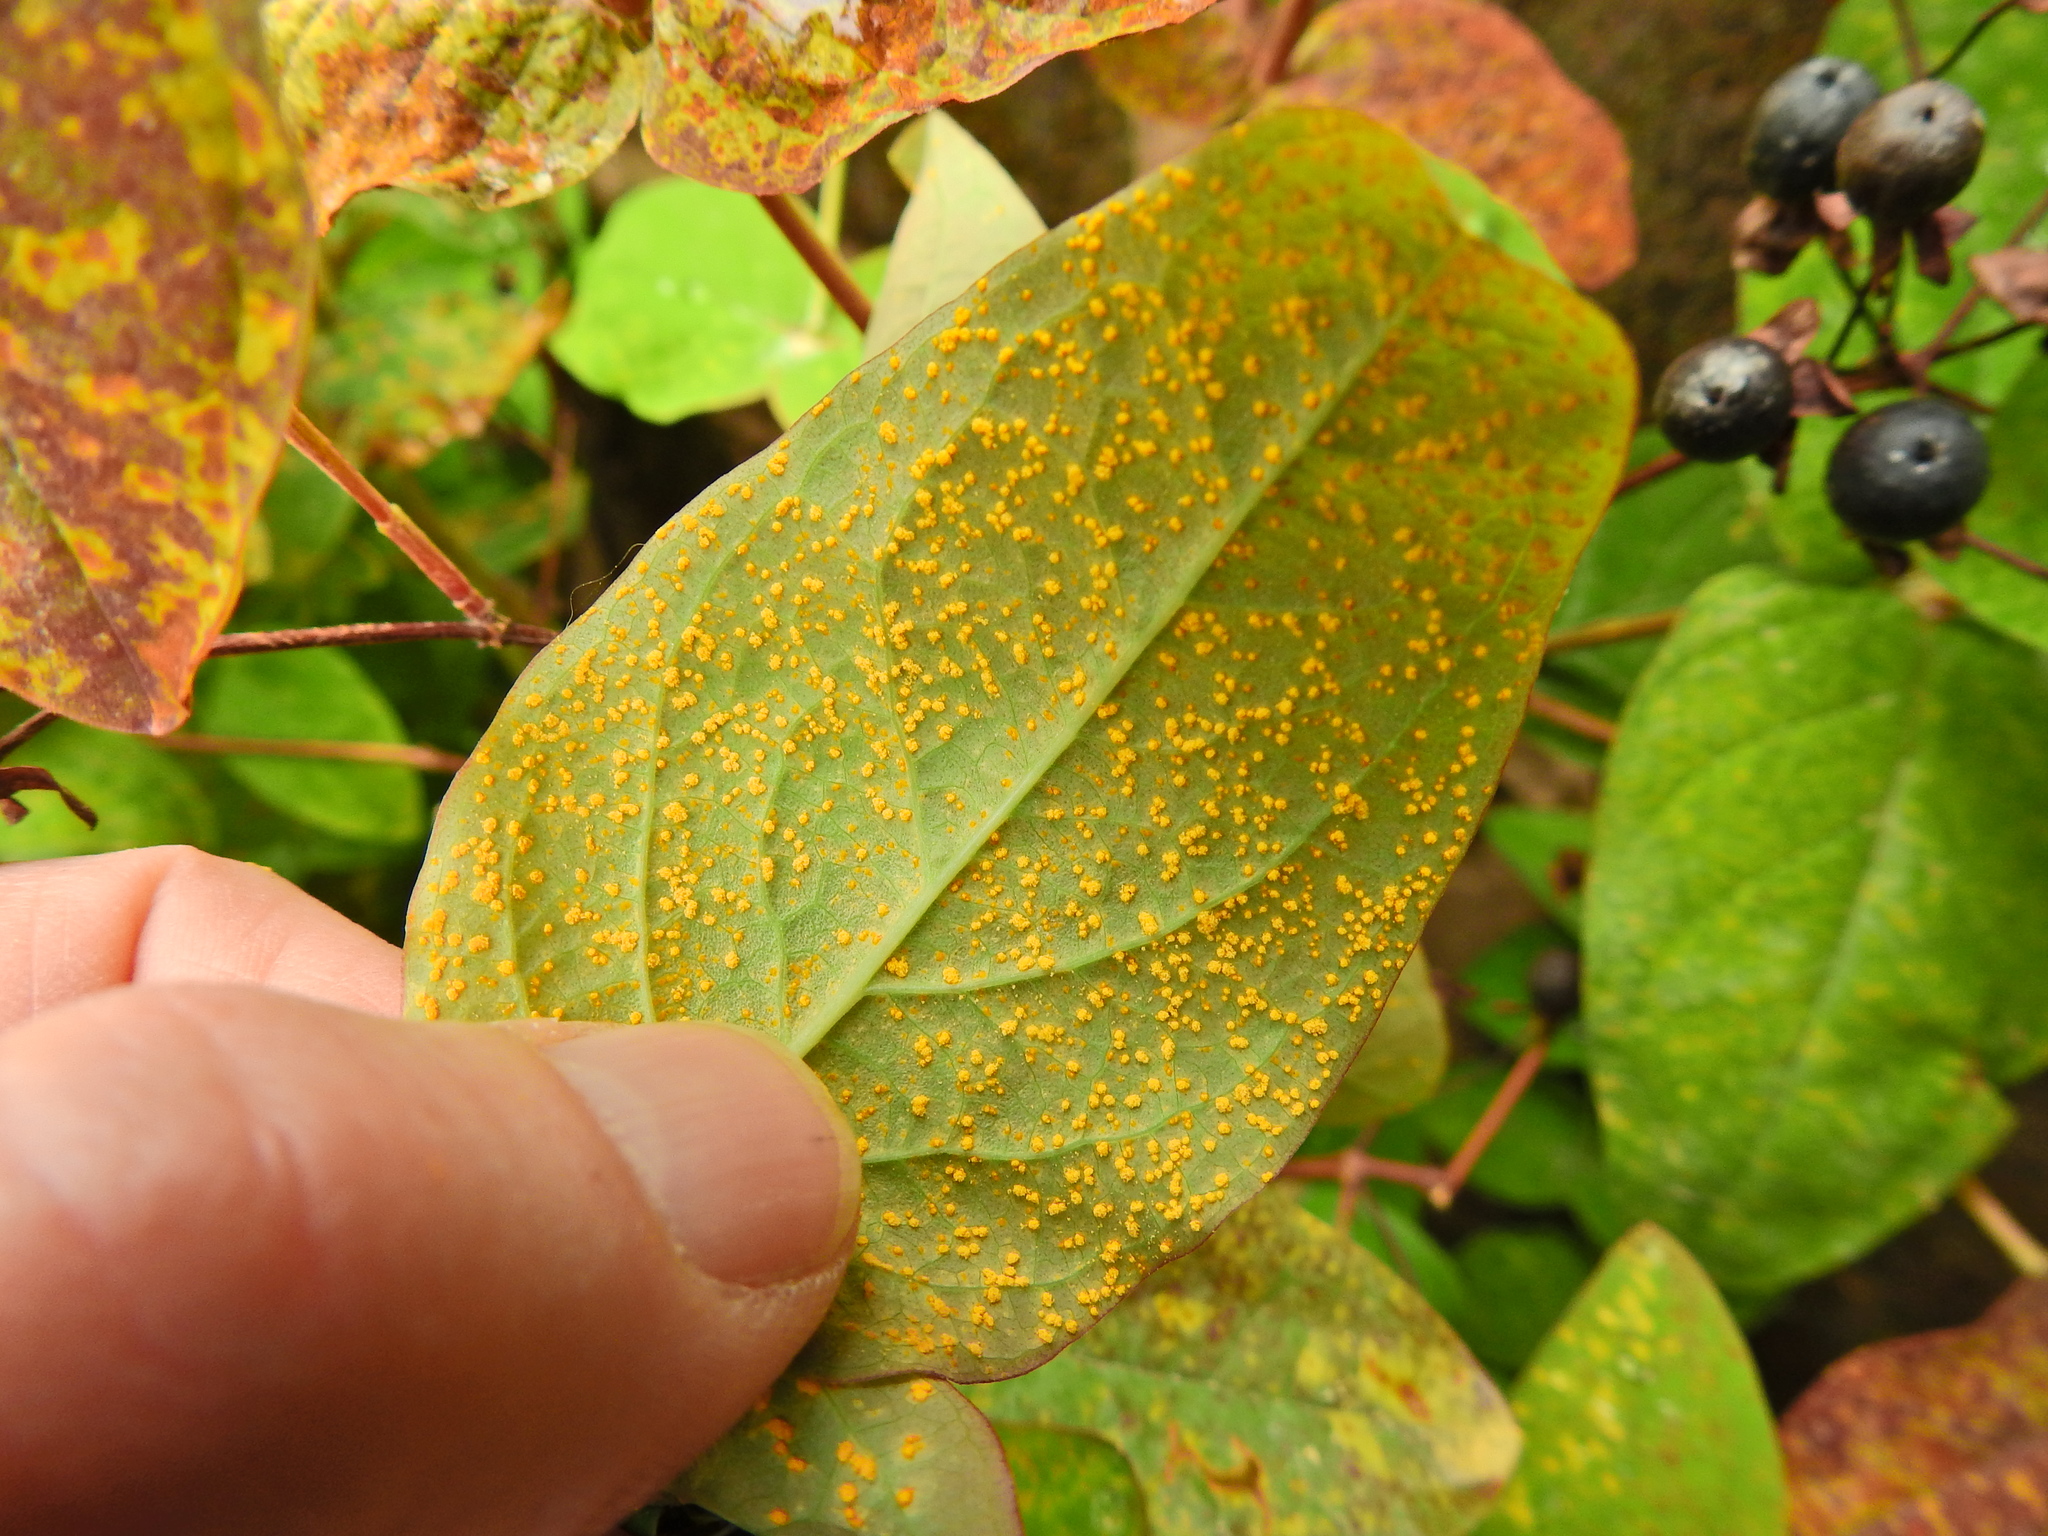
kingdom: Fungi
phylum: Basidiomycota
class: Pucciniomycetes
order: Pucciniales
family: Melampsoraceae
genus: Melampsora
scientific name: Melampsora
